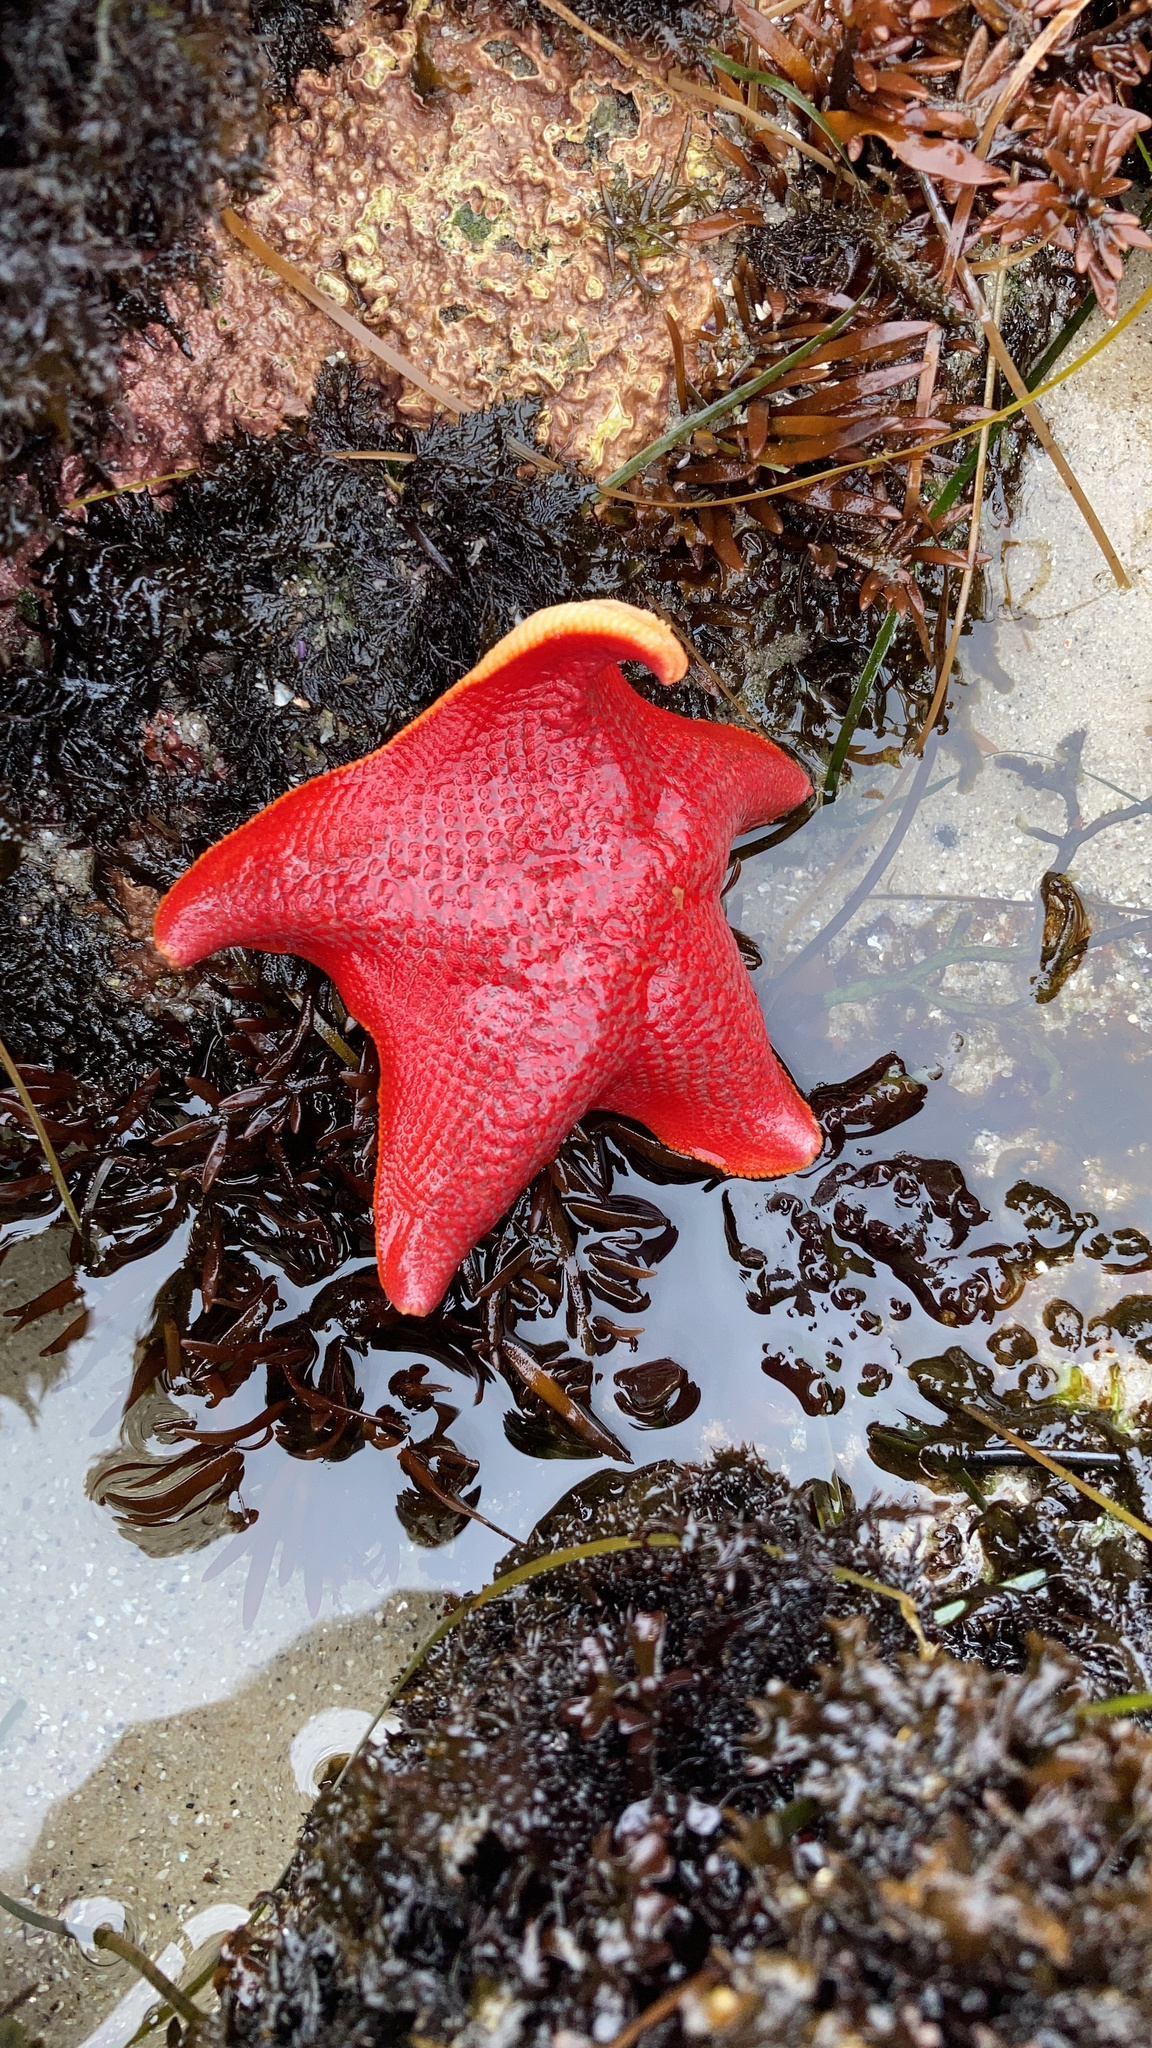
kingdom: Animalia
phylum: Echinodermata
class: Asteroidea
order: Valvatida
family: Asterinidae
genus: Patiria
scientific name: Patiria miniata
